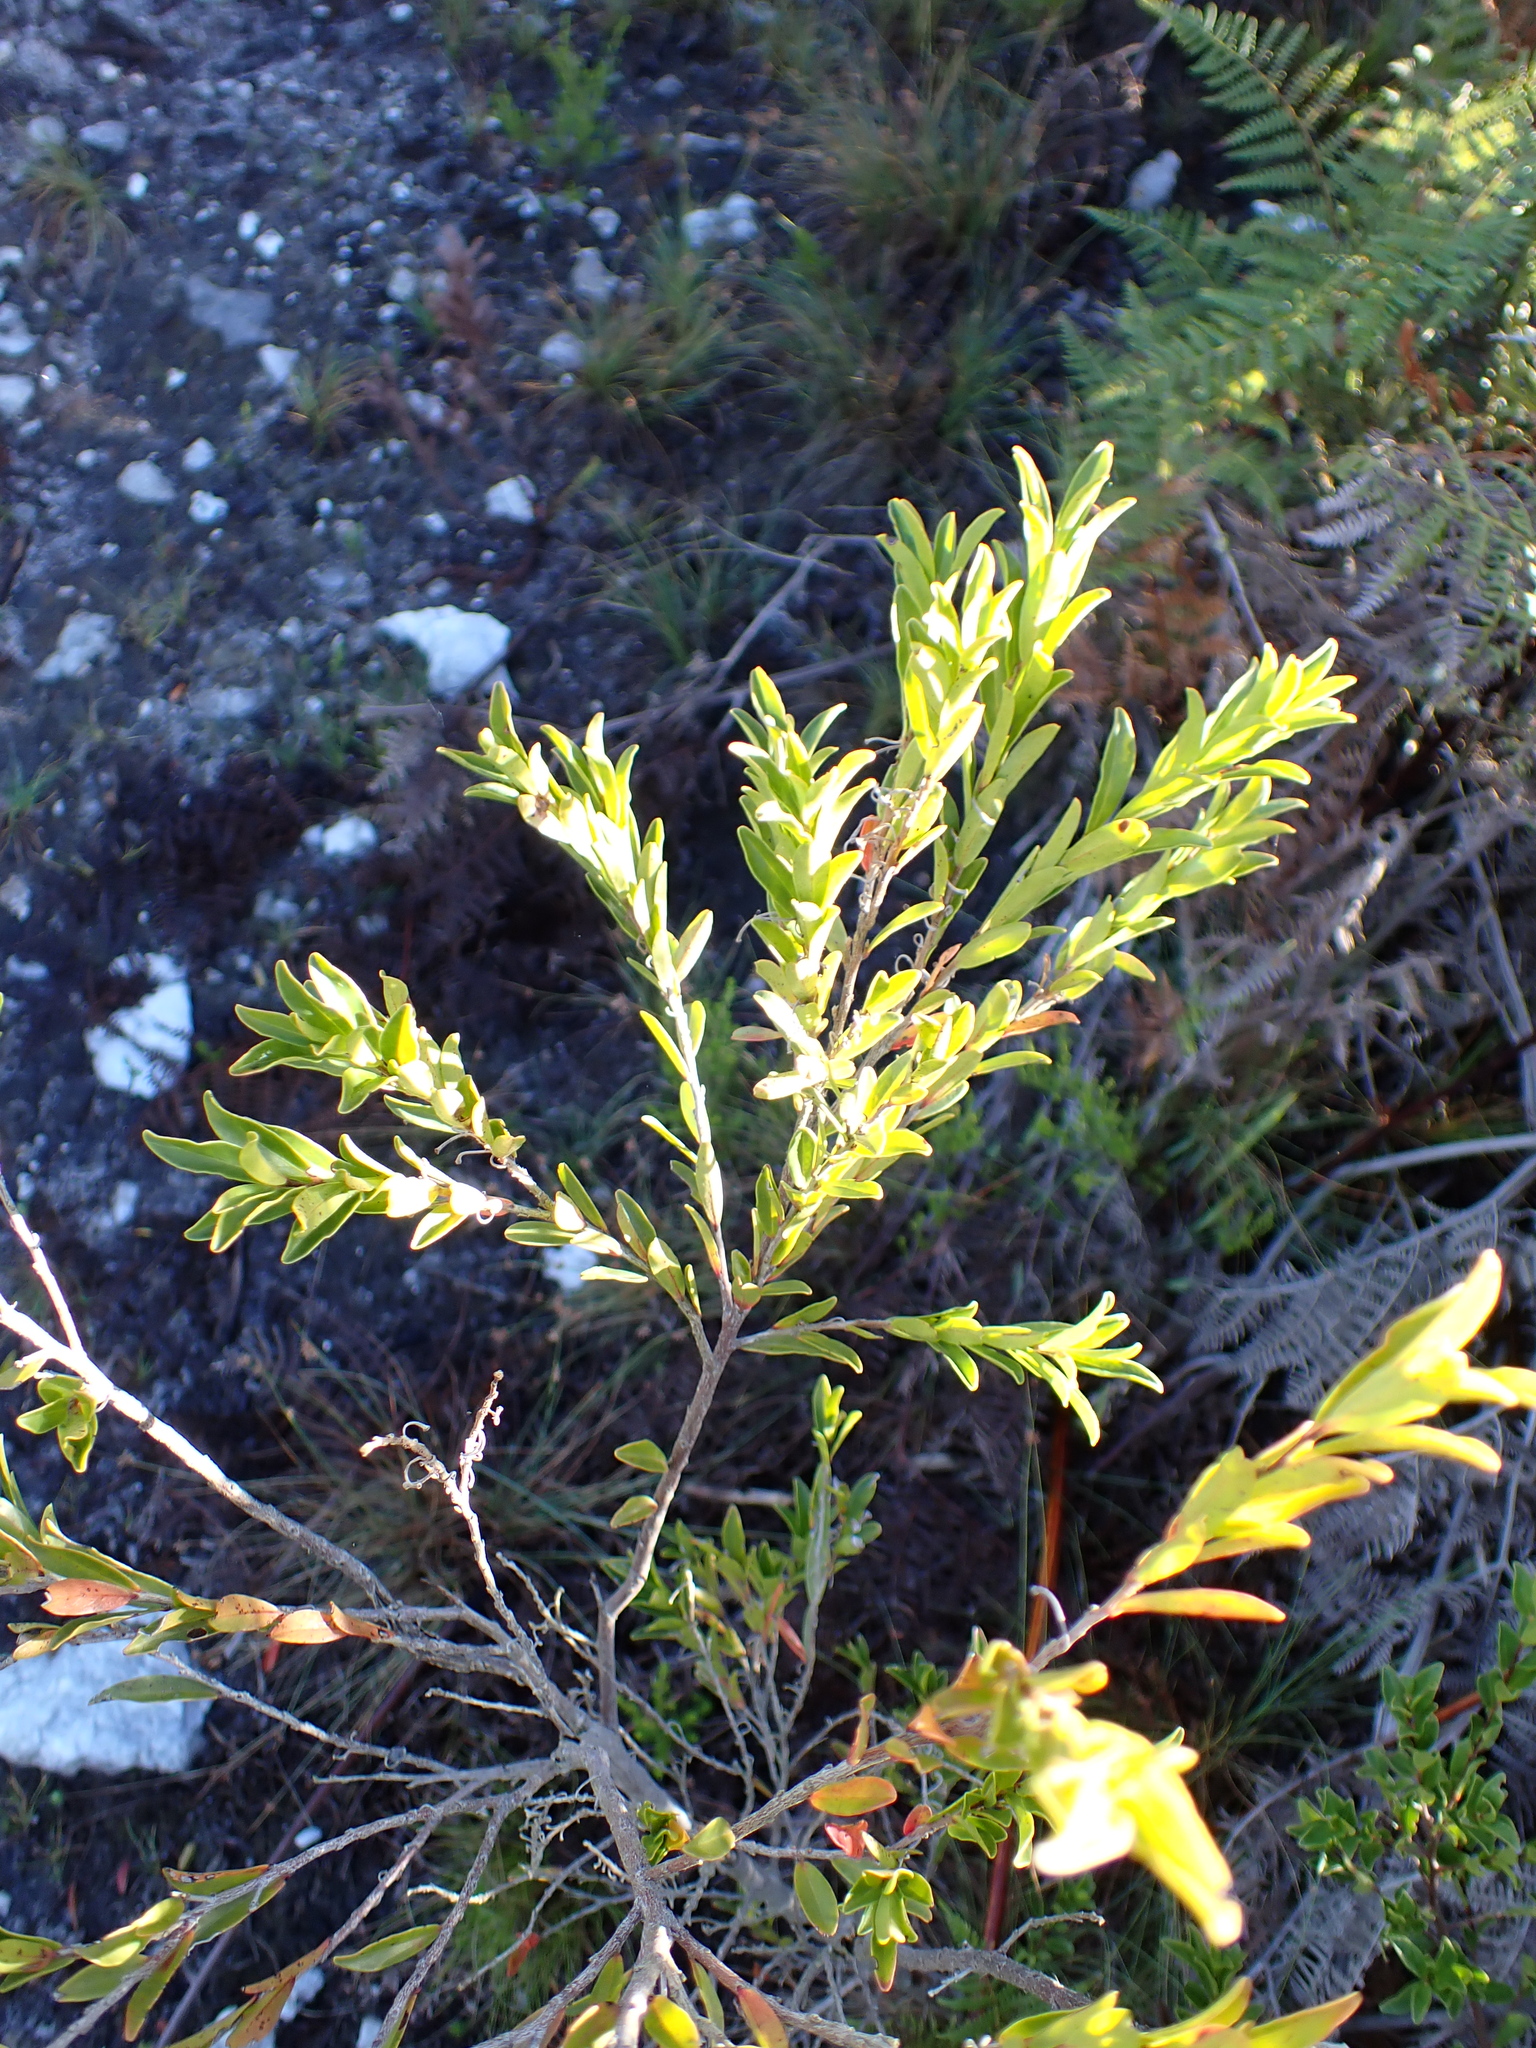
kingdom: Plantae
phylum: Tracheophyta
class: Magnoliopsida
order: Ericales
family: Ebenaceae
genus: Diospyros
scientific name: Diospyros glabra
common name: Fynbos star apple
